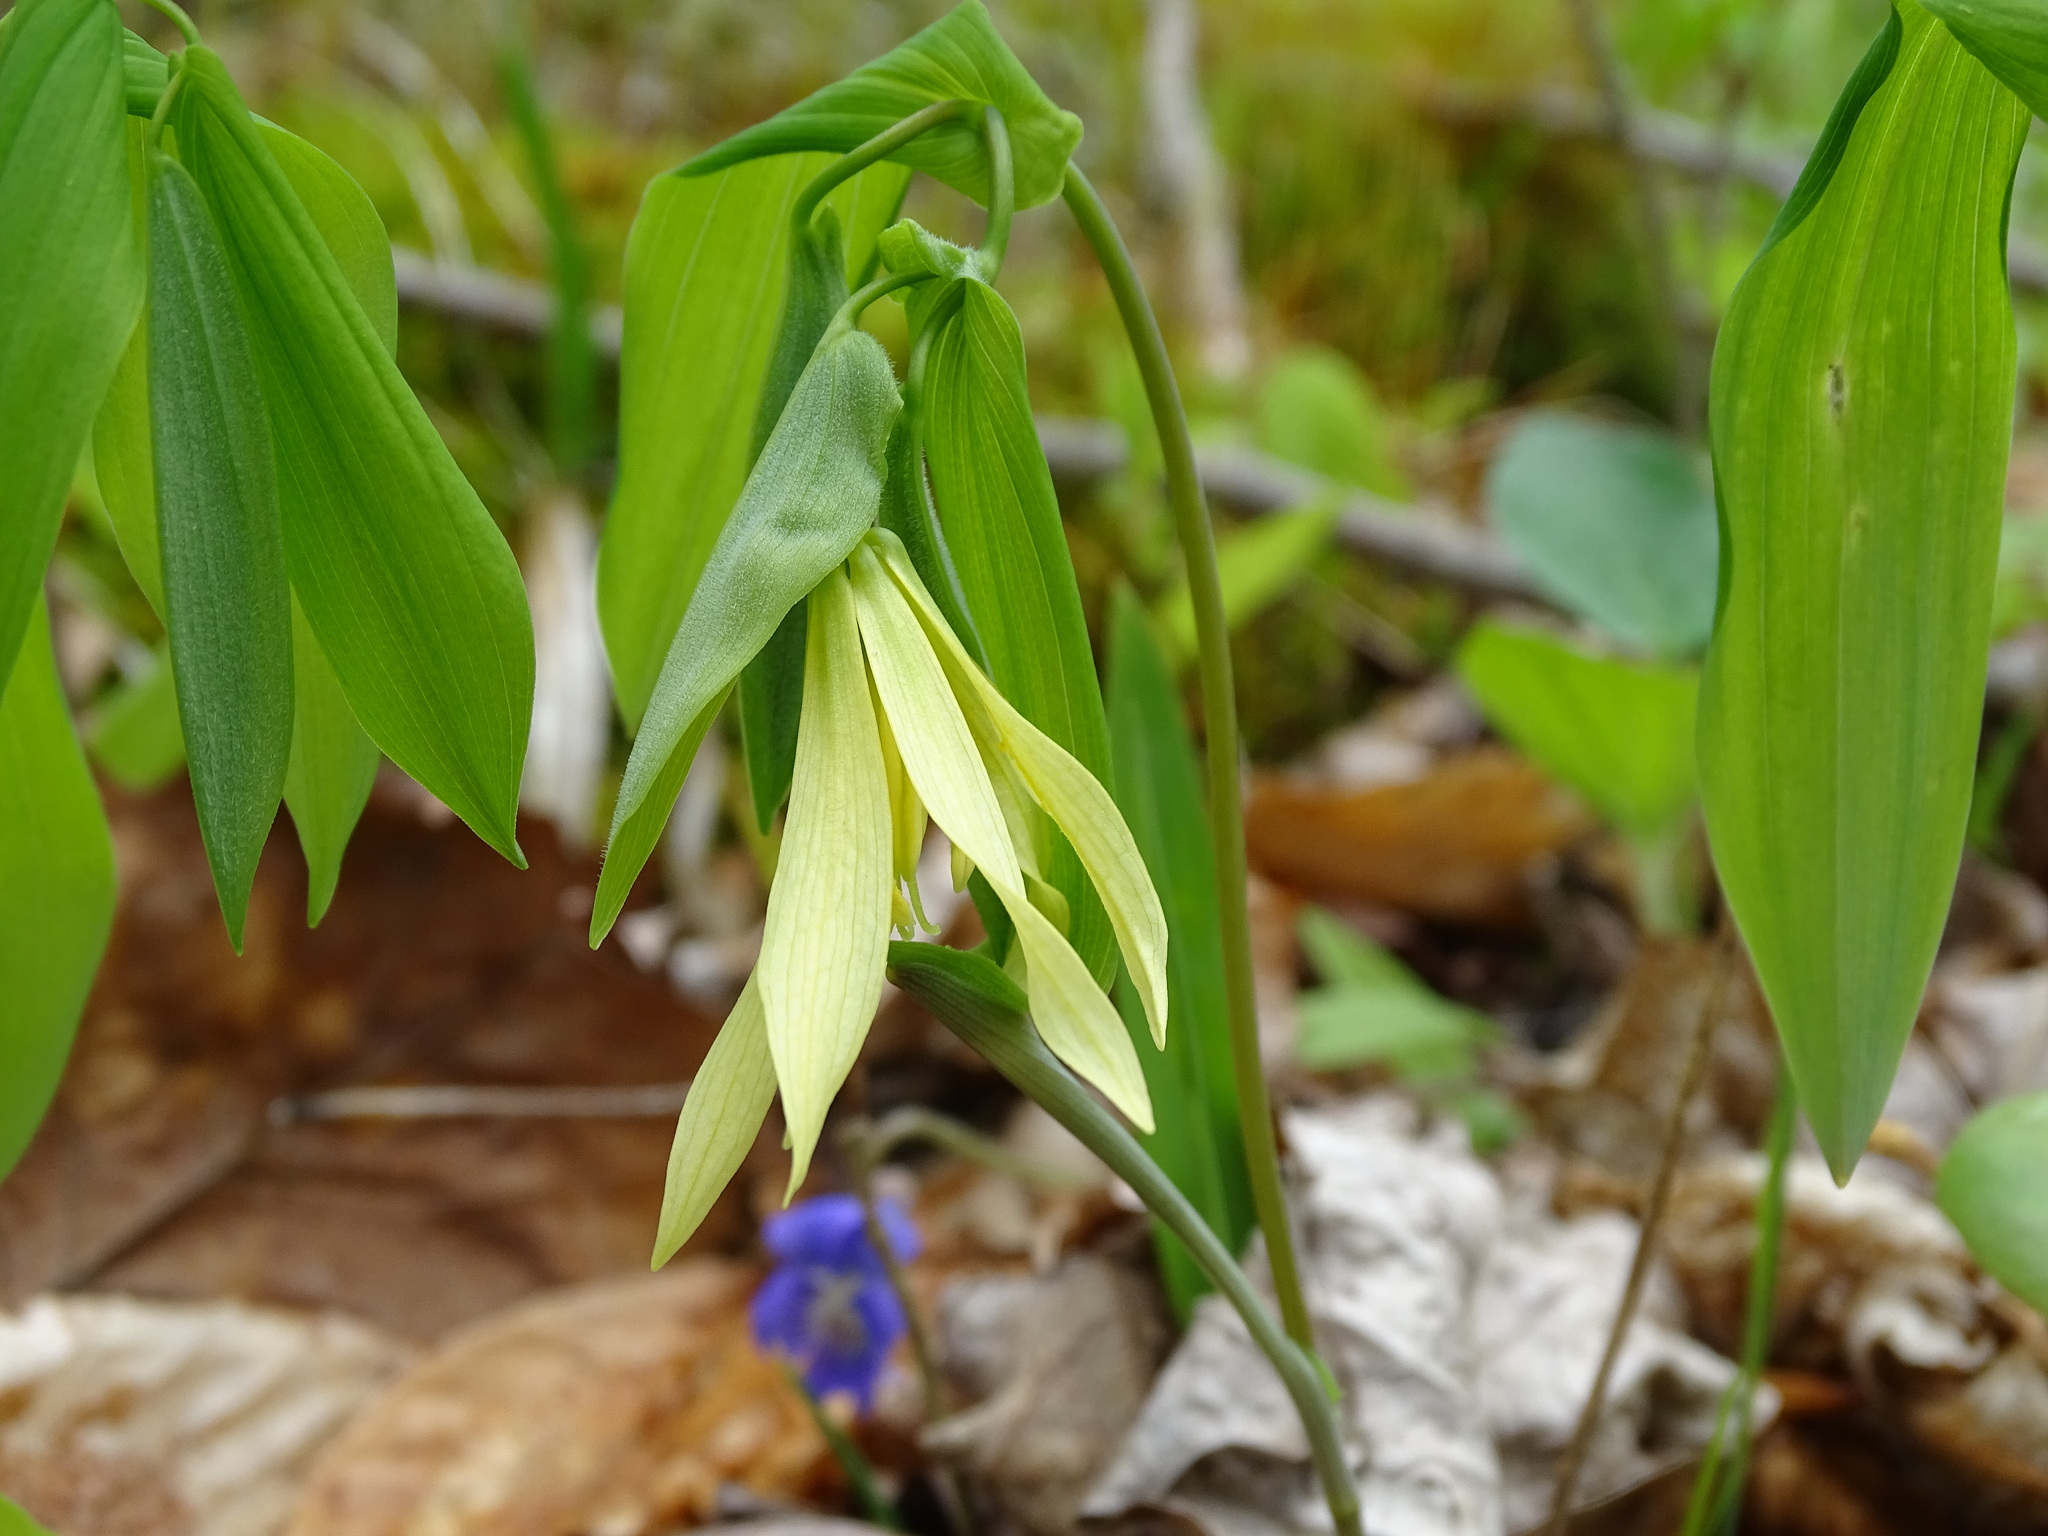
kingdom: Plantae
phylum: Tracheophyta
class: Liliopsida
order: Liliales
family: Colchicaceae
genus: Uvularia
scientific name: Uvularia grandiflora
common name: Bellwort
